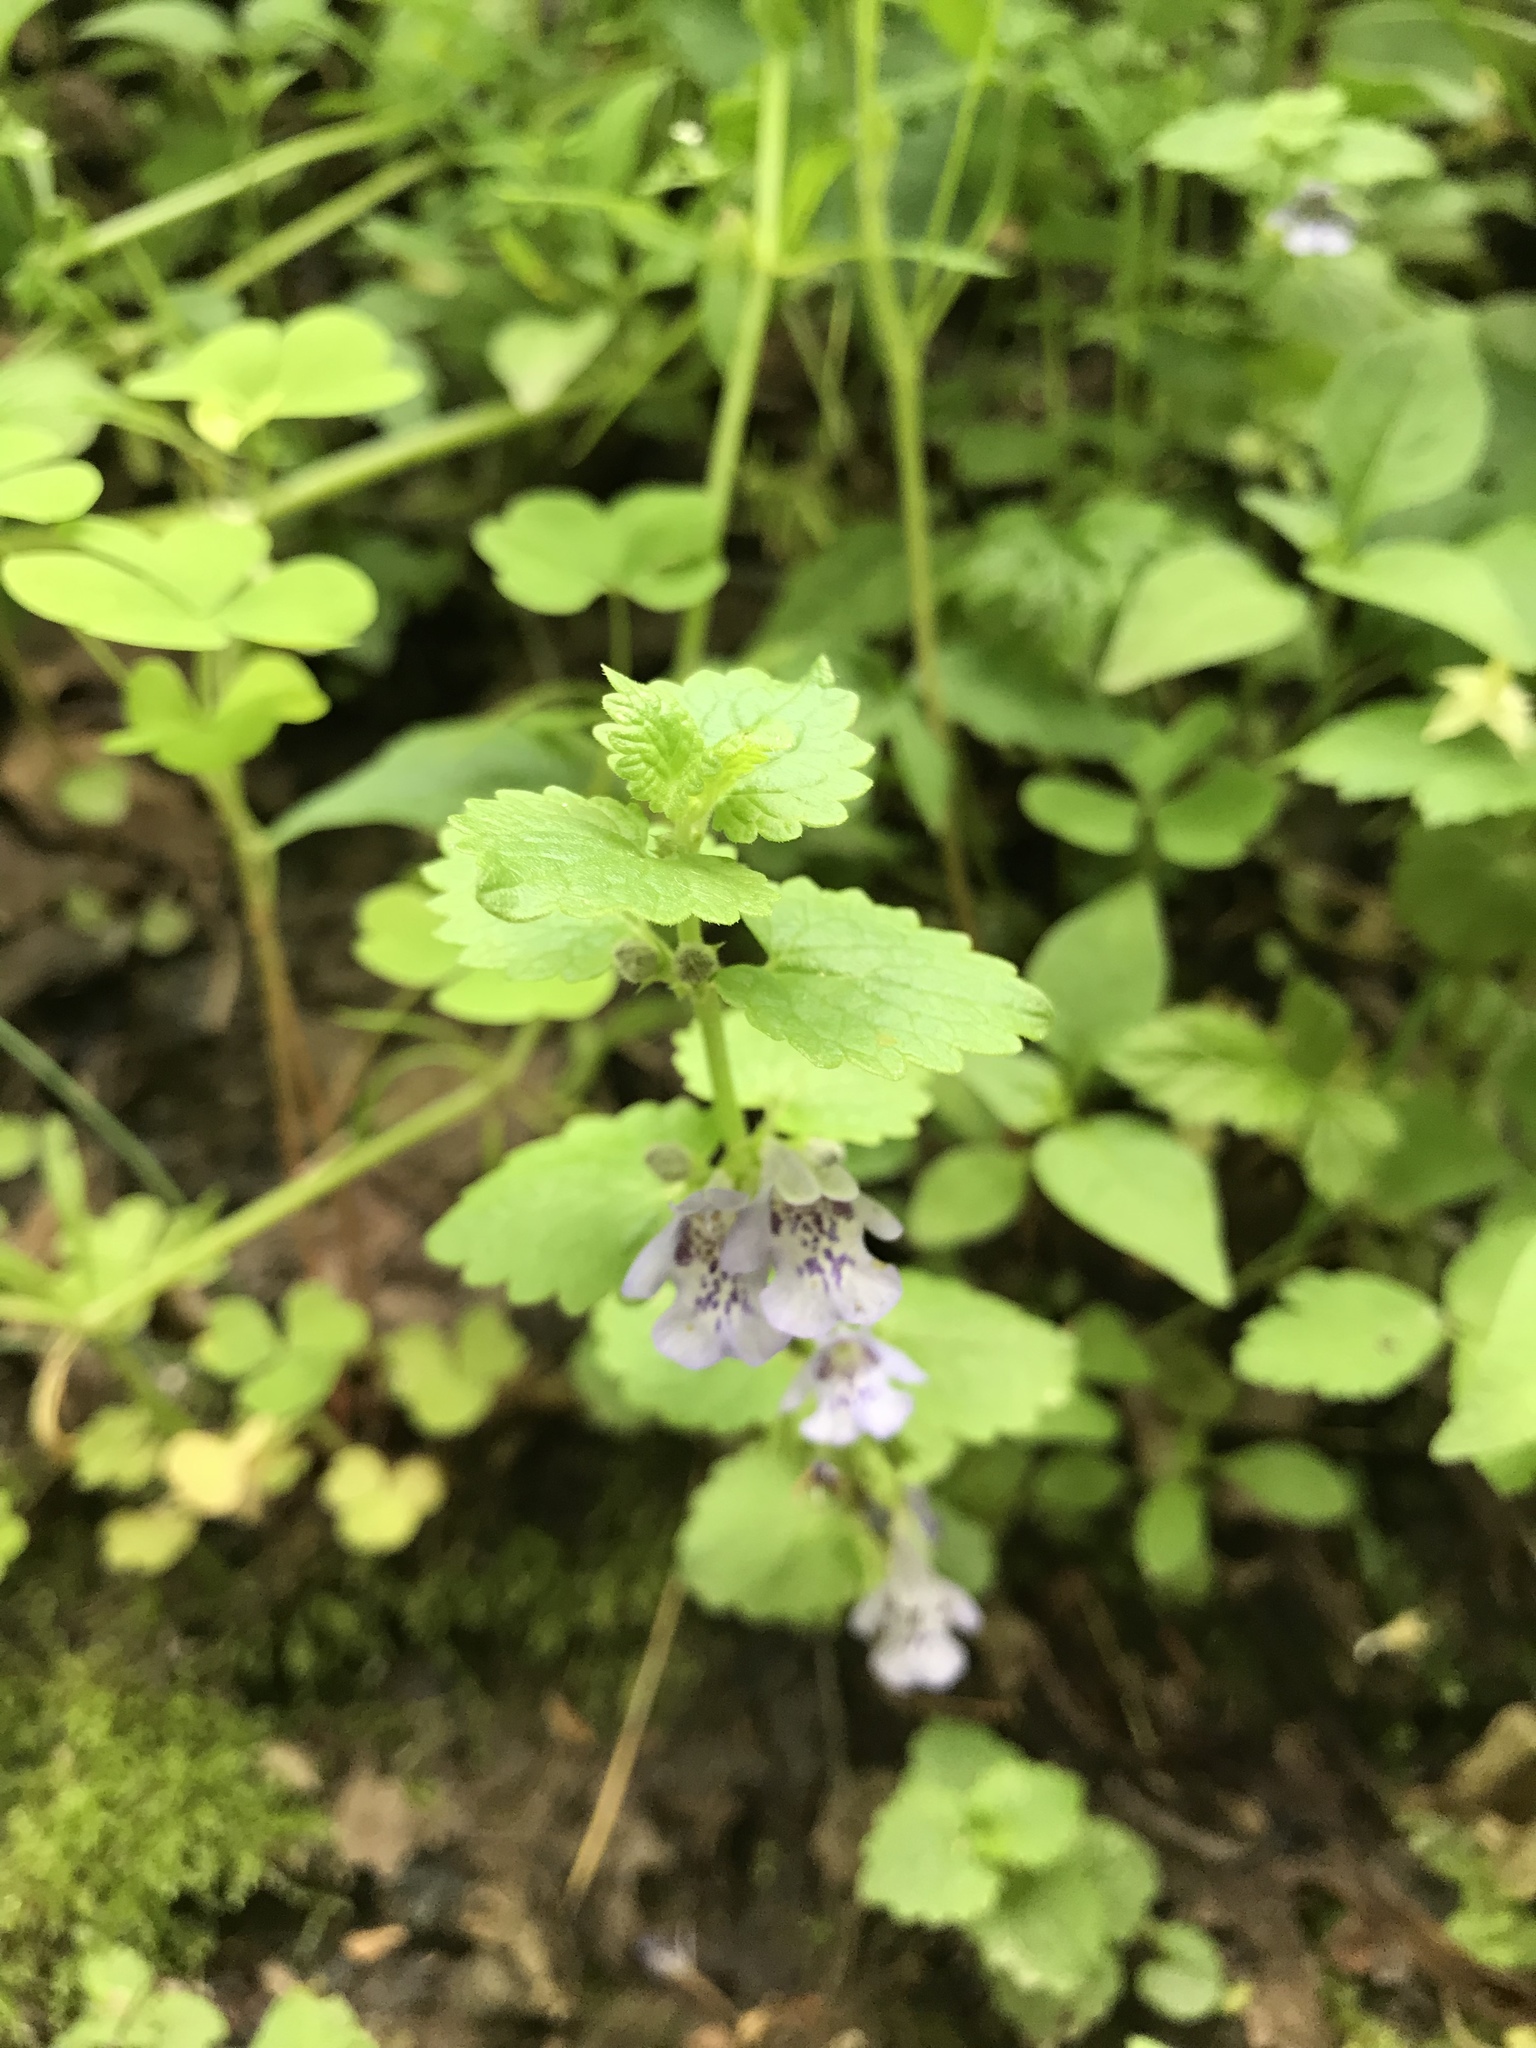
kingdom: Plantae
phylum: Tracheophyta
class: Magnoliopsida
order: Lamiales
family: Lamiaceae
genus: Glechoma
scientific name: Glechoma hederacea
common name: Ground ivy
